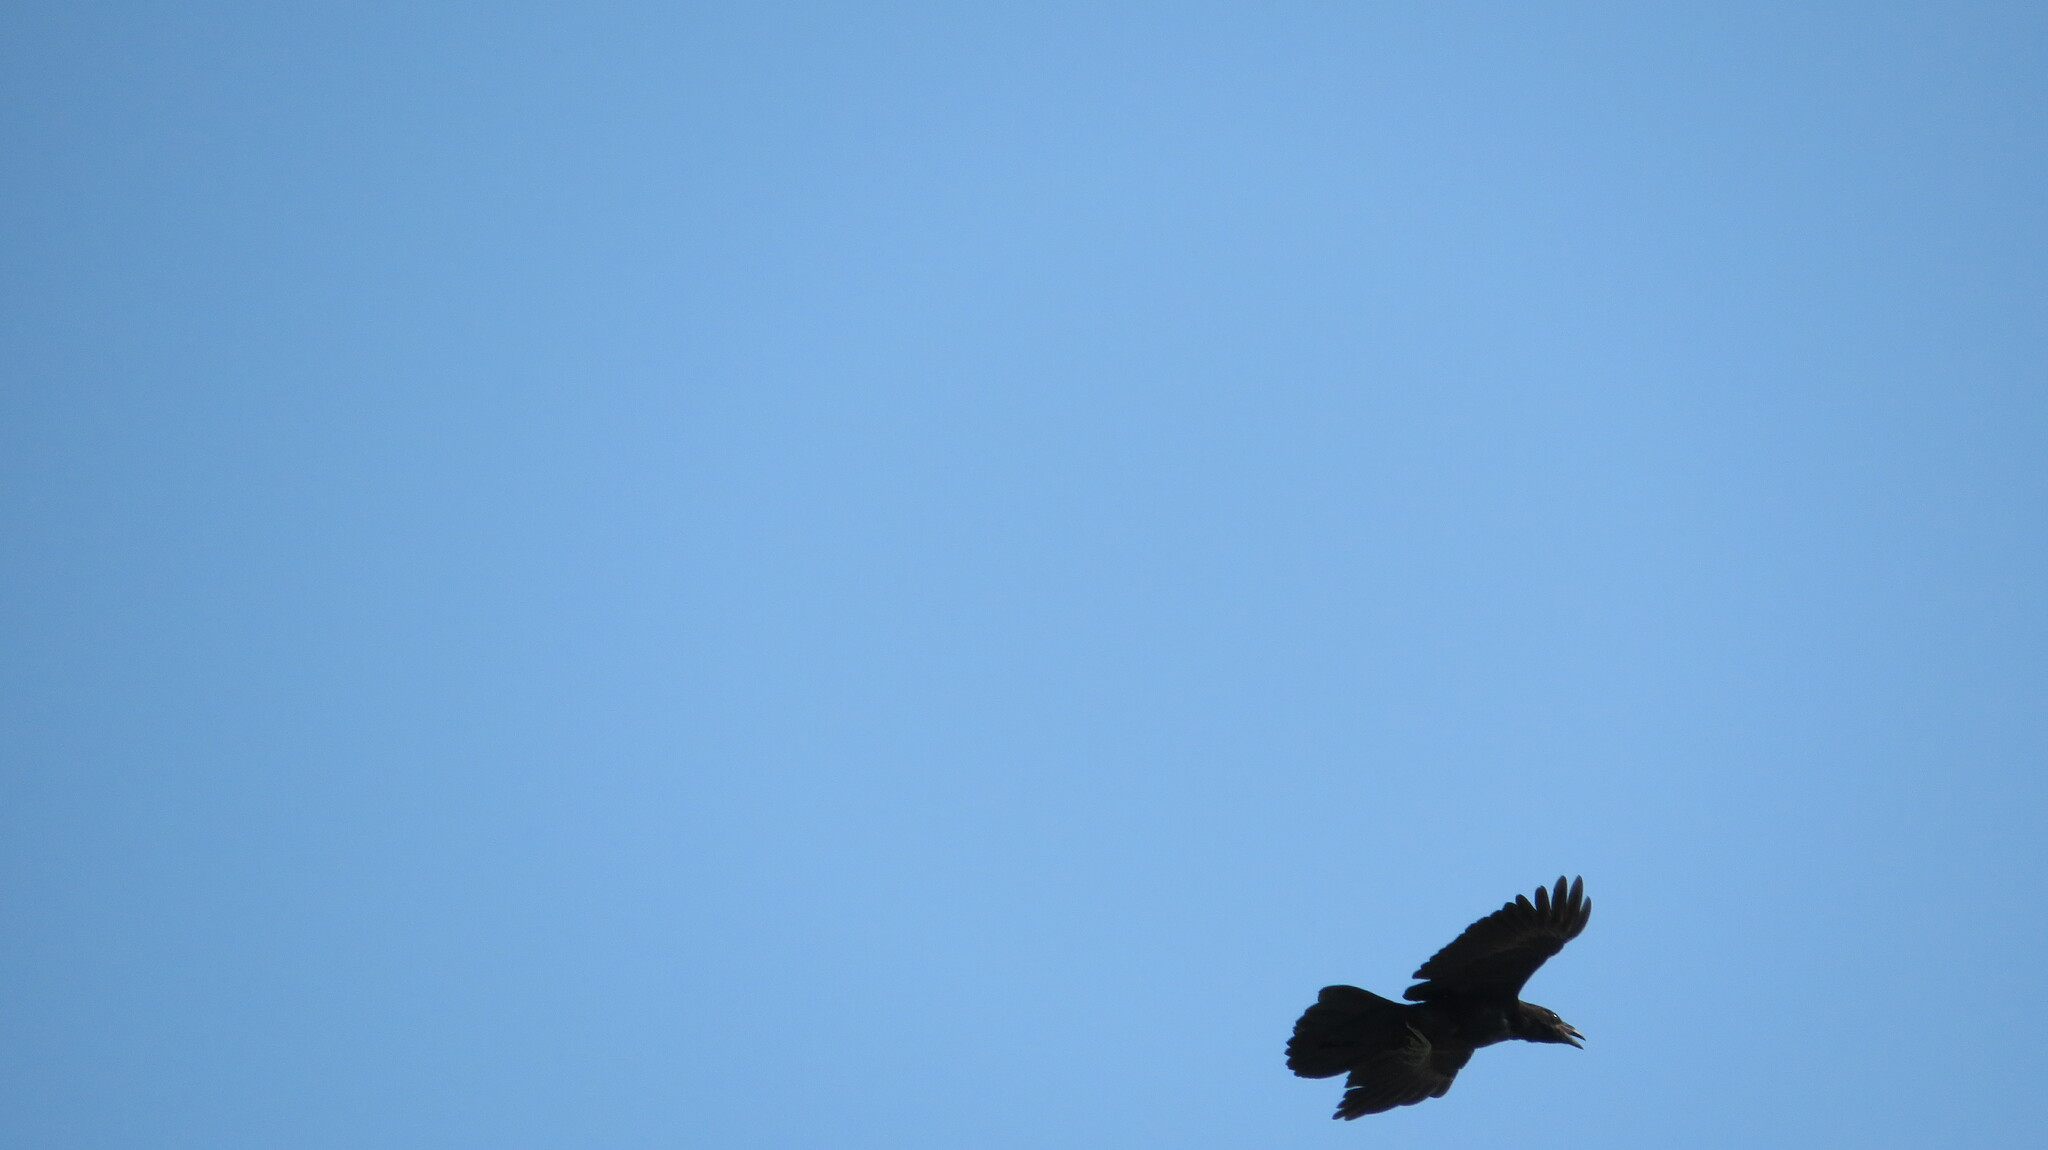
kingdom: Animalia
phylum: Chordata
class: Aves
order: Passeriformes
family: Corvidae
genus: Corvus
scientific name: Corvus corax
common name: Common raven
